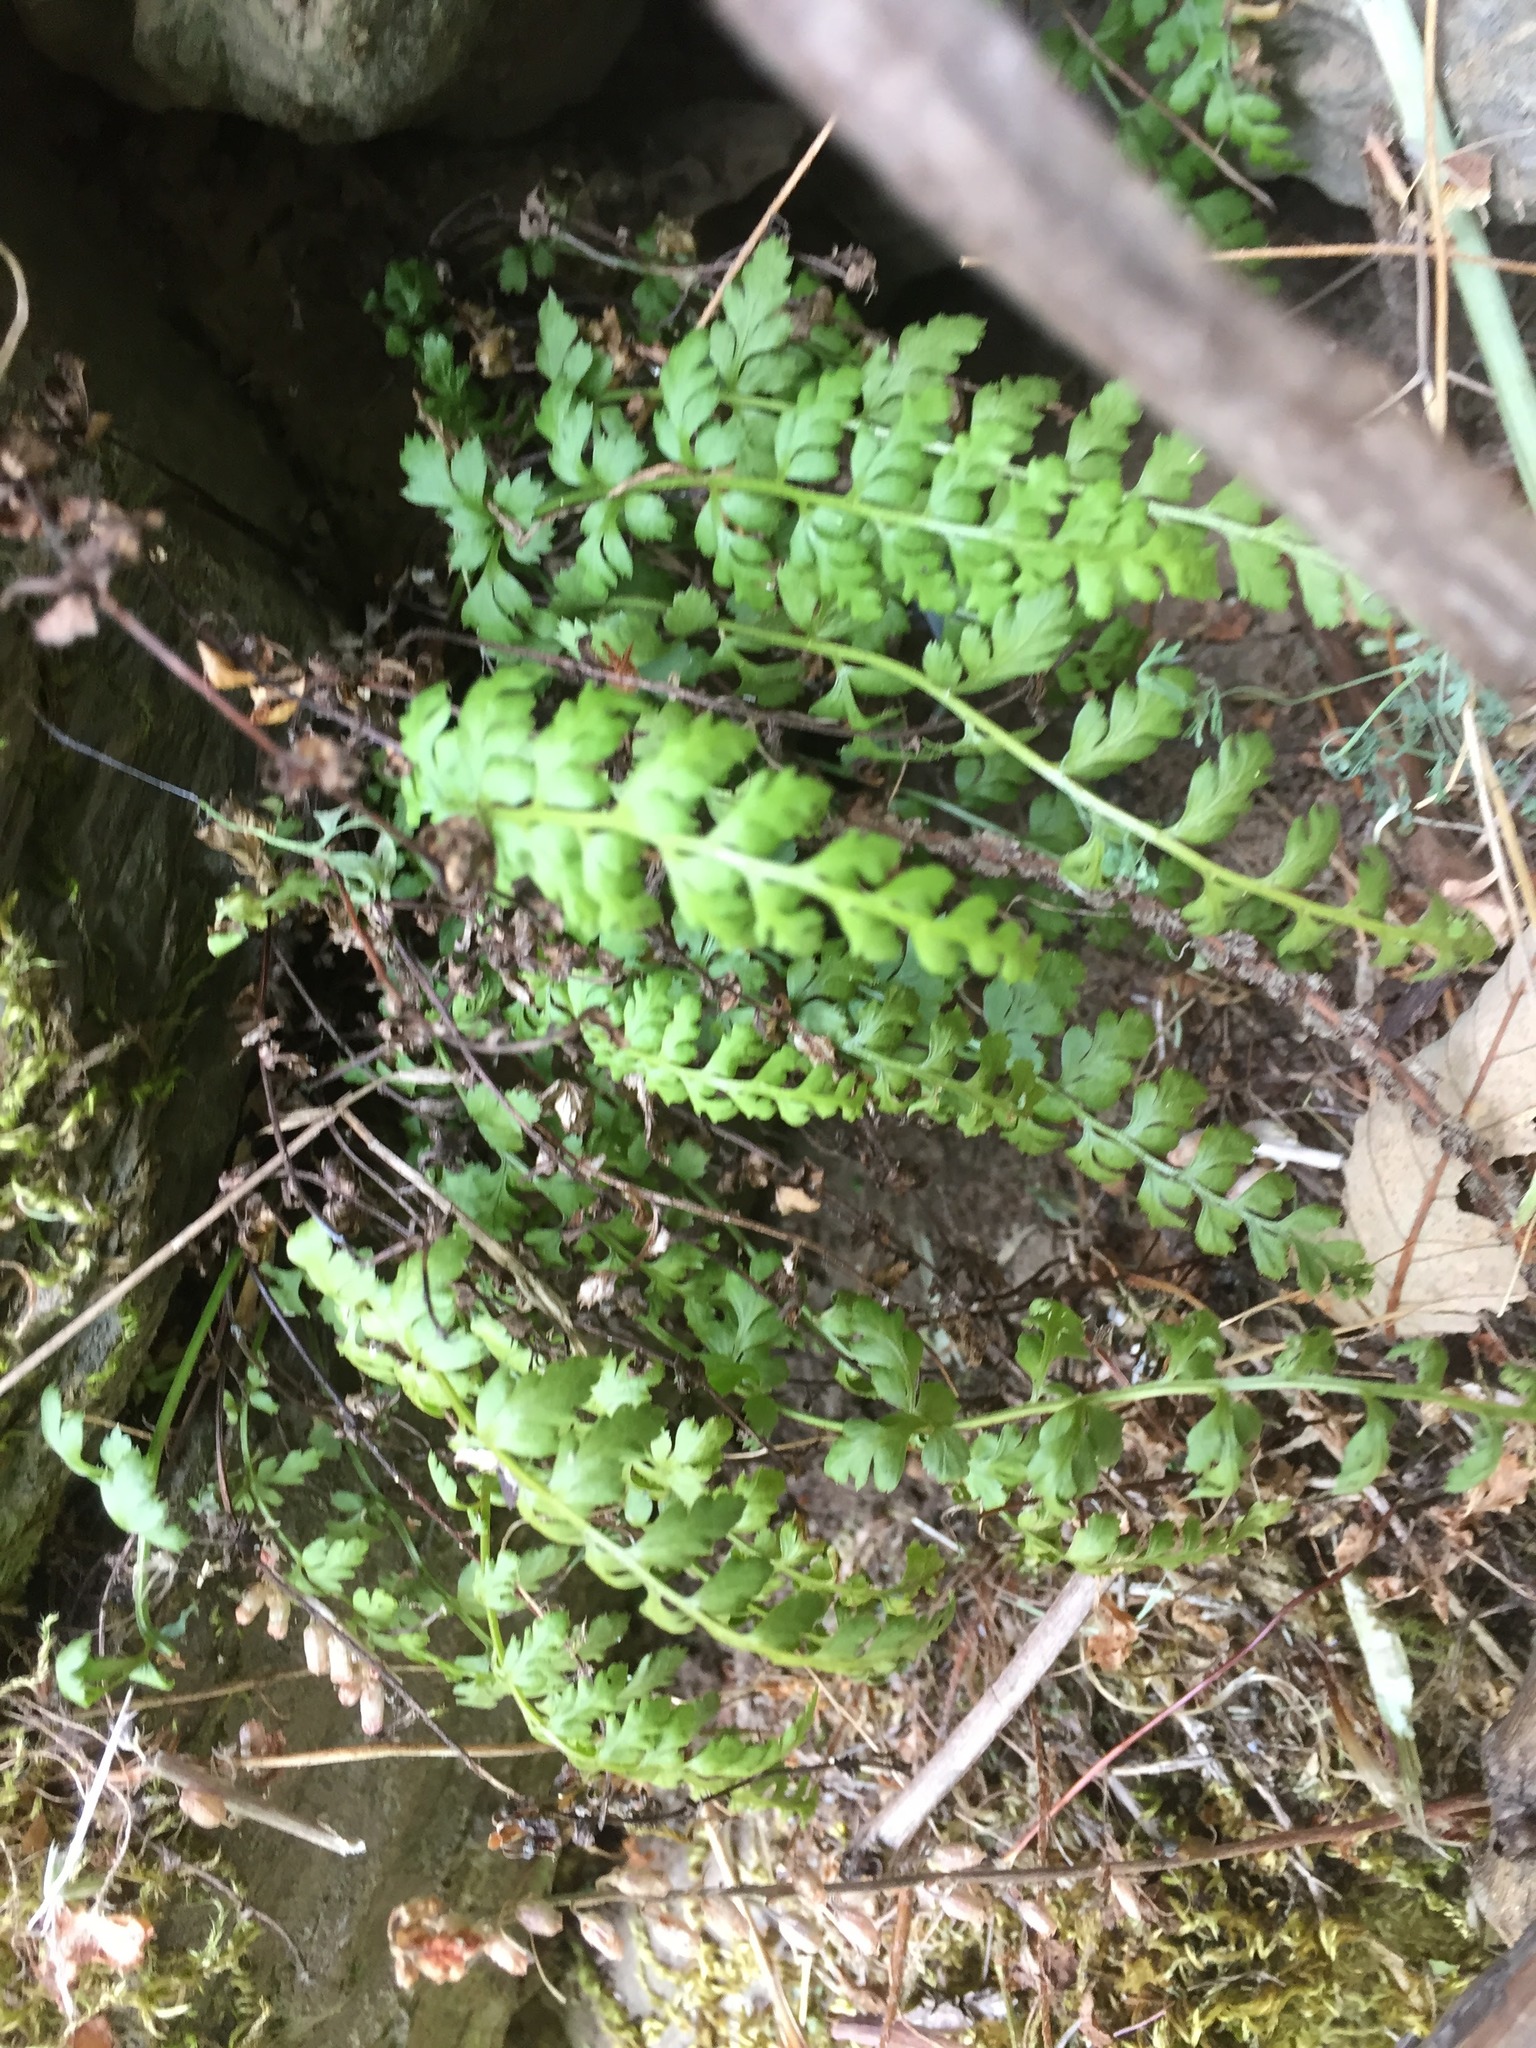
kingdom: Plantae
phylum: Tracheophyta
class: Polypodiopsida
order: Polypodiales
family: Aspleniaceae
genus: Asplenium
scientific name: Asplenium obovatum
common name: Lanceolate spleenwort
